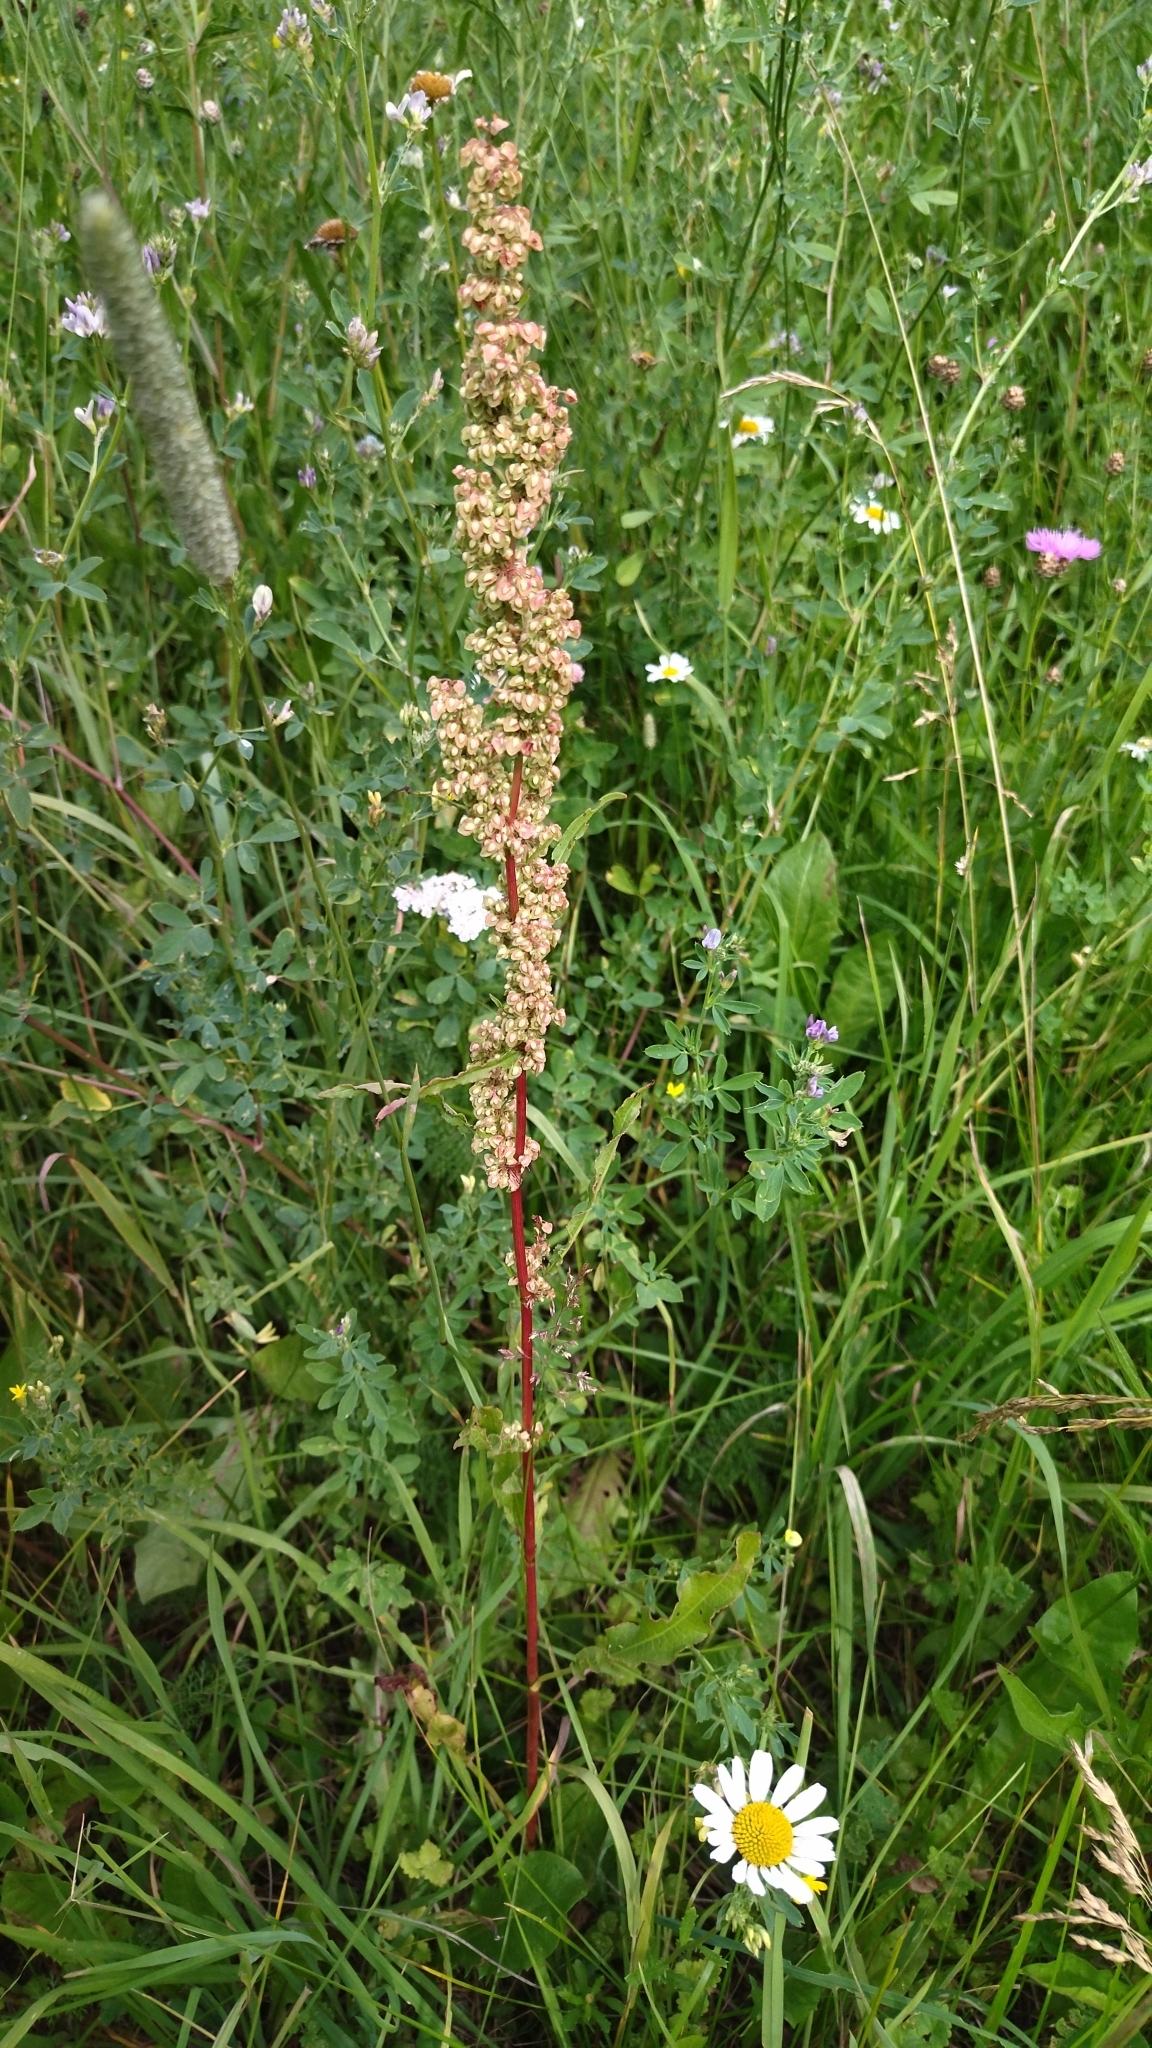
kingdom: Plantae
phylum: Tracheophyta
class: Magnoliopsida
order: Caryophyllales
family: Polygonaceae
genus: Rumex
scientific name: Rumex crispus
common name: Curled dock
